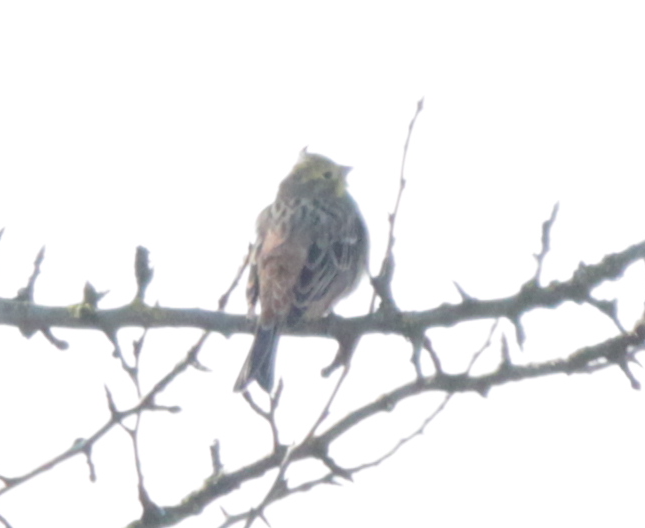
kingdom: Animalia
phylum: Chordata
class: Aves
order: Passeriformes
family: Emberizidae
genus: Emberiza
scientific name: Emberiza citrinella
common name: Yellowhammer
